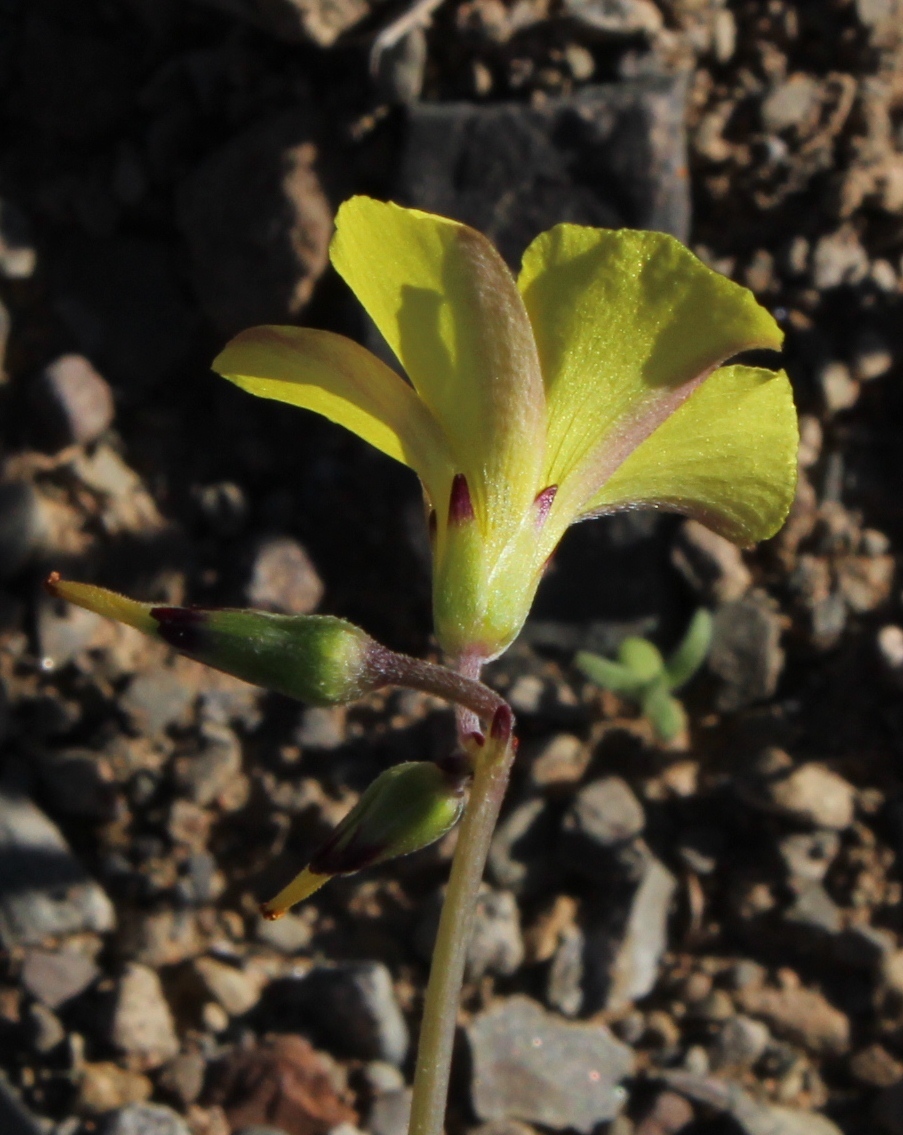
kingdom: Plantae
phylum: Tracheophyta
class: Magnoliopsida
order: Oxalidales
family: Oxalidaceae
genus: Oxalis
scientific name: Oxalis pes-caprae
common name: Bermuda-buttercup
